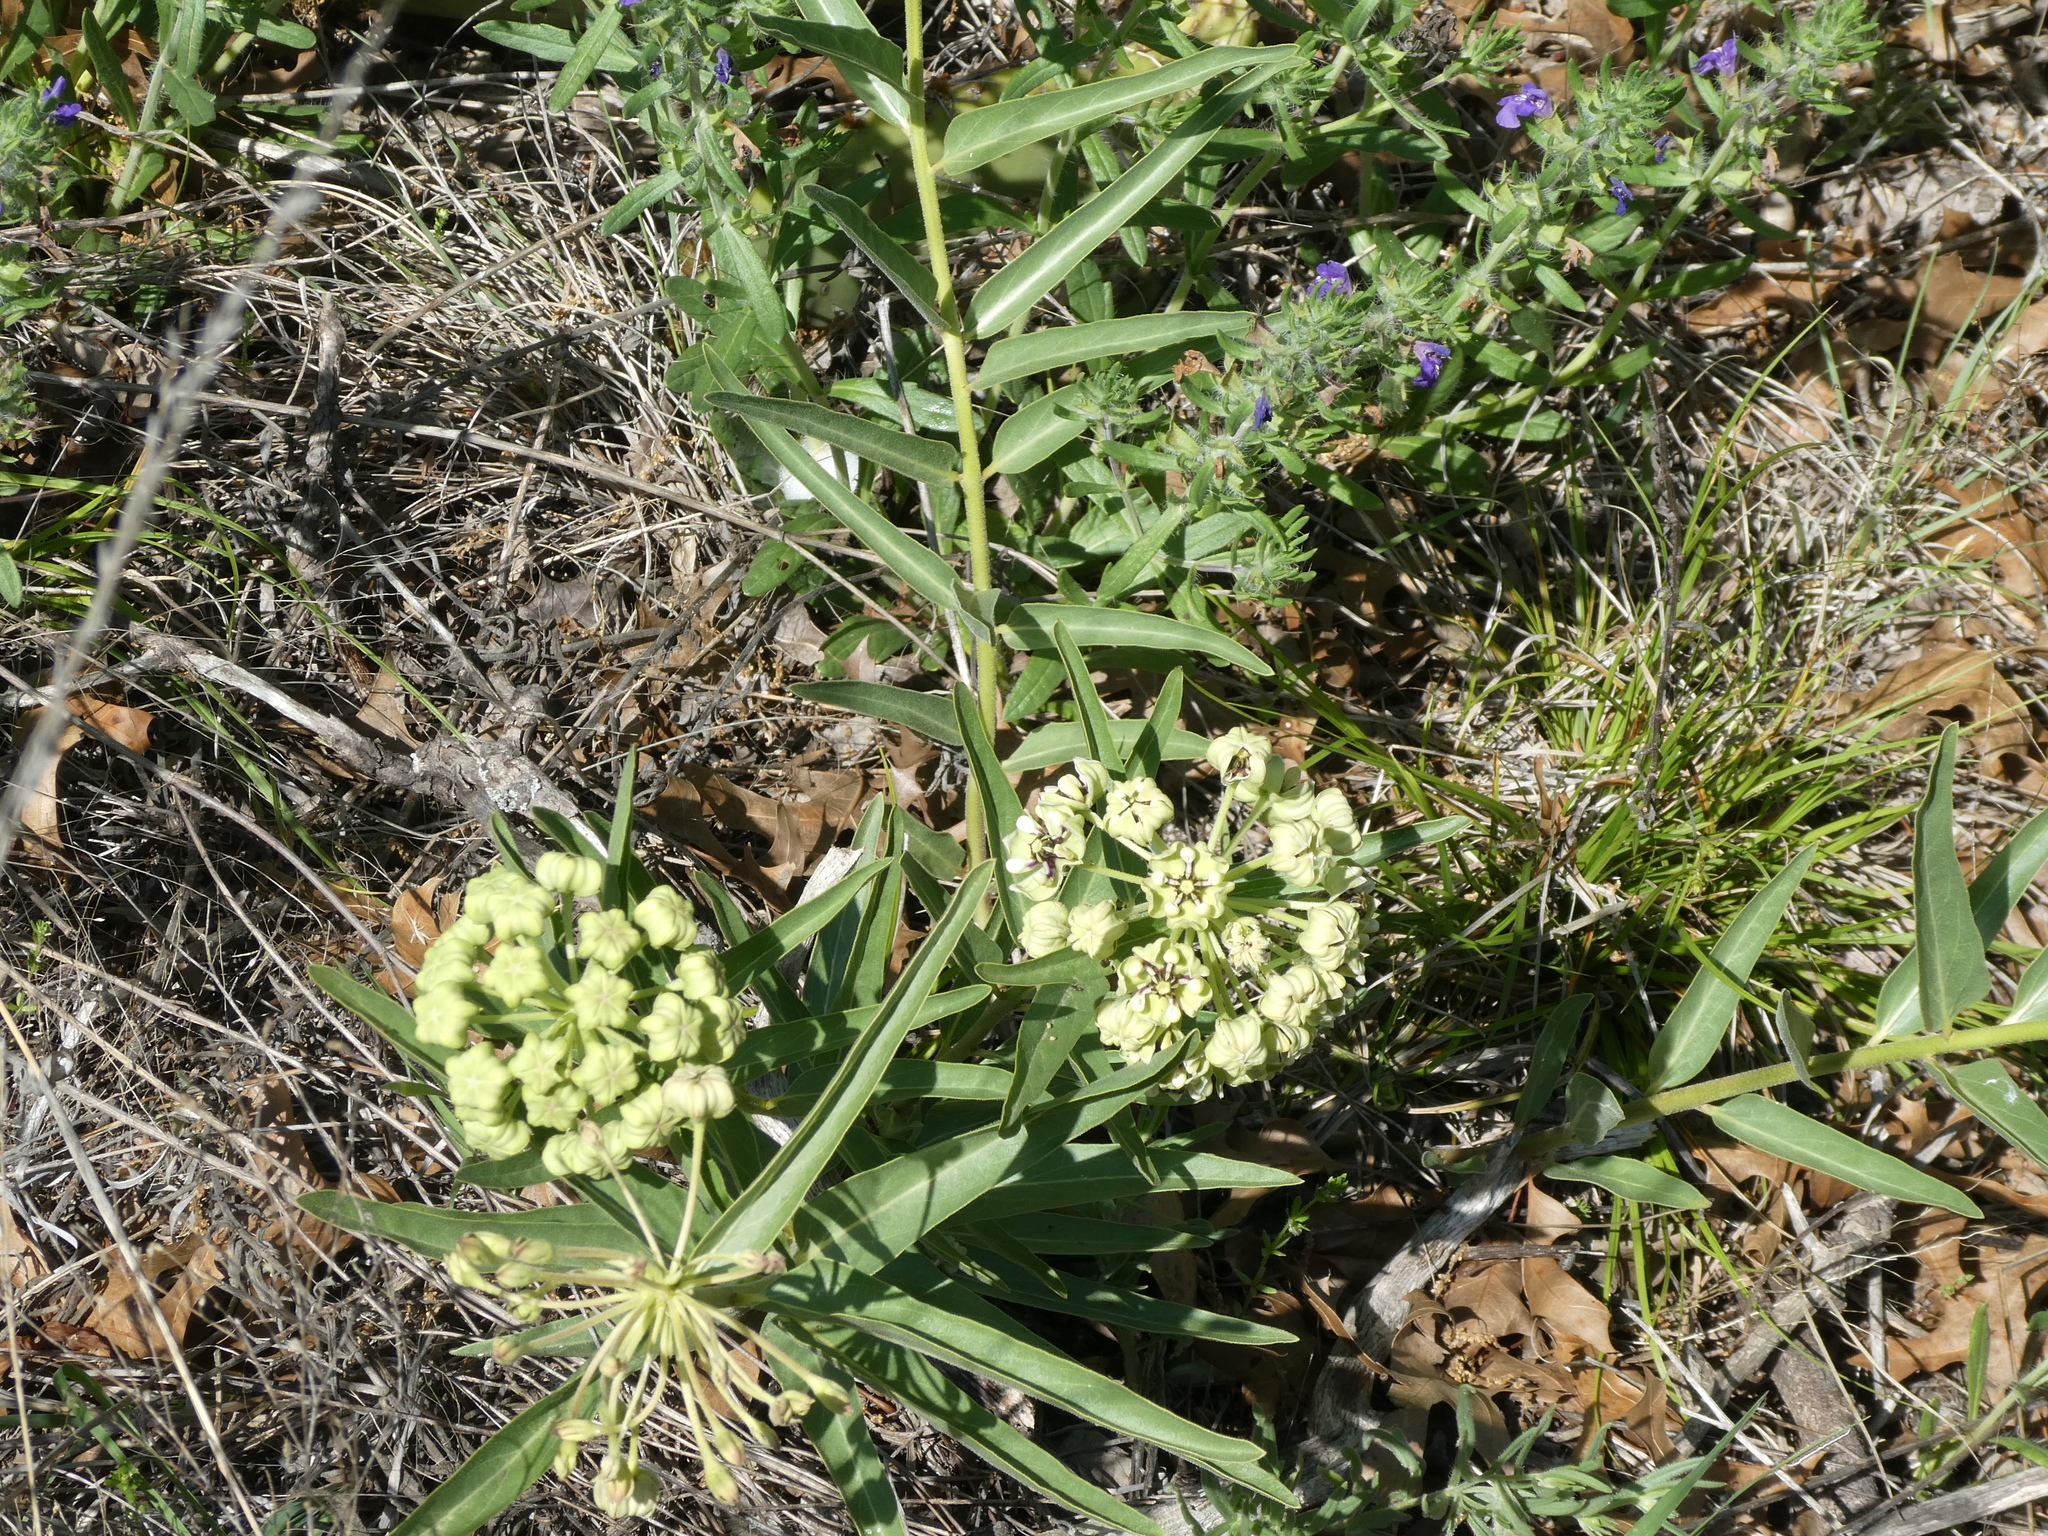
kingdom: Plantae
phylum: Tracheophyta
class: Magnoliopsida
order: Gentianales
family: Apocynaceae
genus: Asclepias
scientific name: Asclepias asperula
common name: Antelope horns
